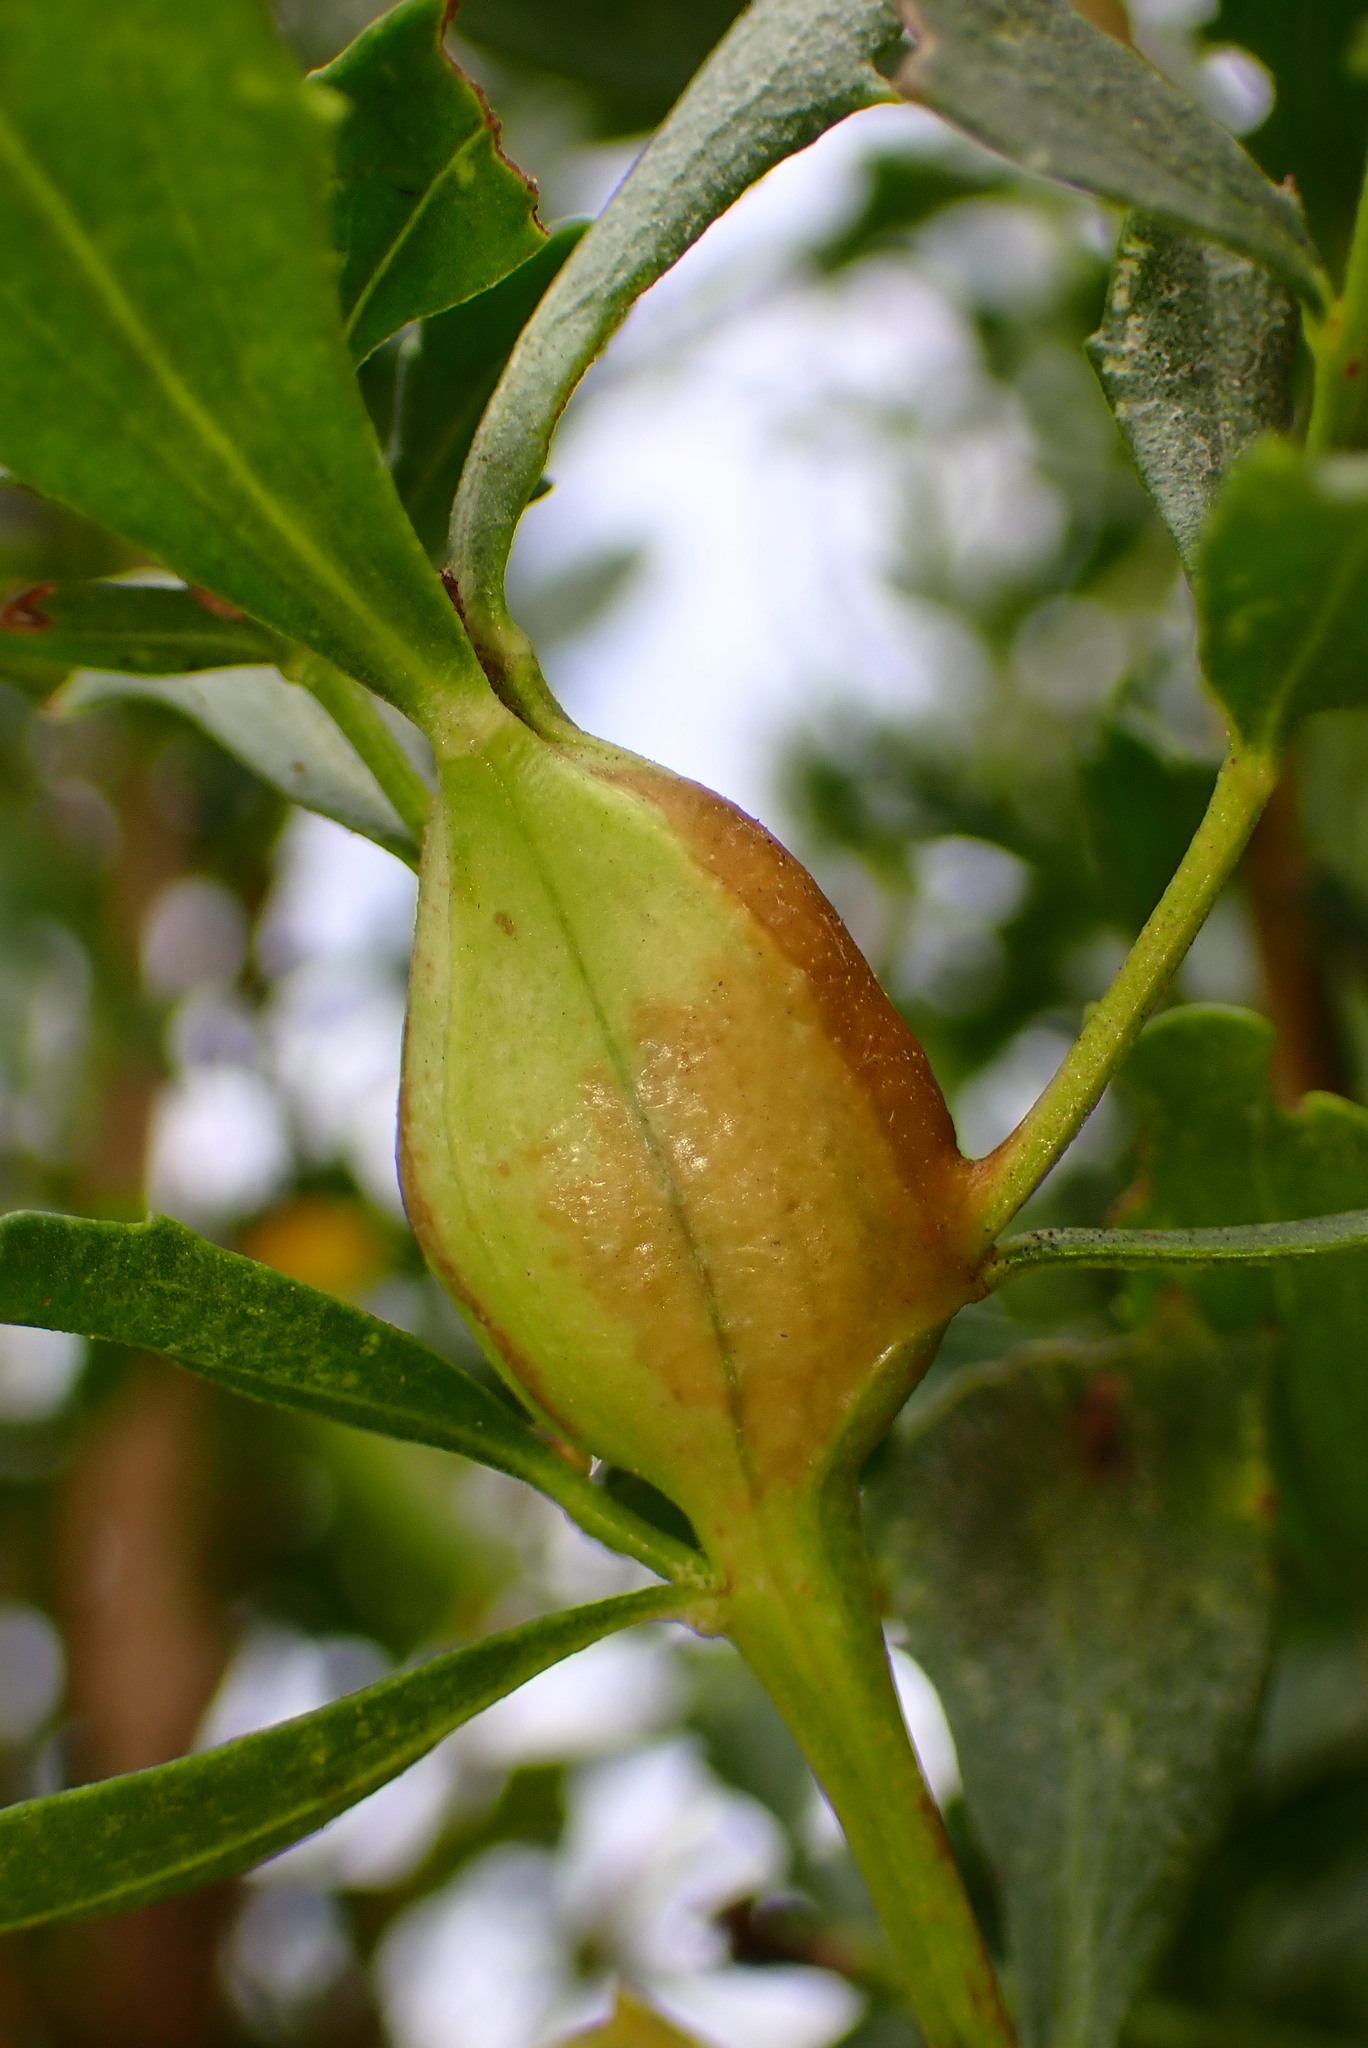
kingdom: Animalia
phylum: Arthropoda
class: Insecta
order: Lepidoptera
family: Gelechiidae
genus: Gnorimoschema
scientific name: Gnorimoschema baccharisella
